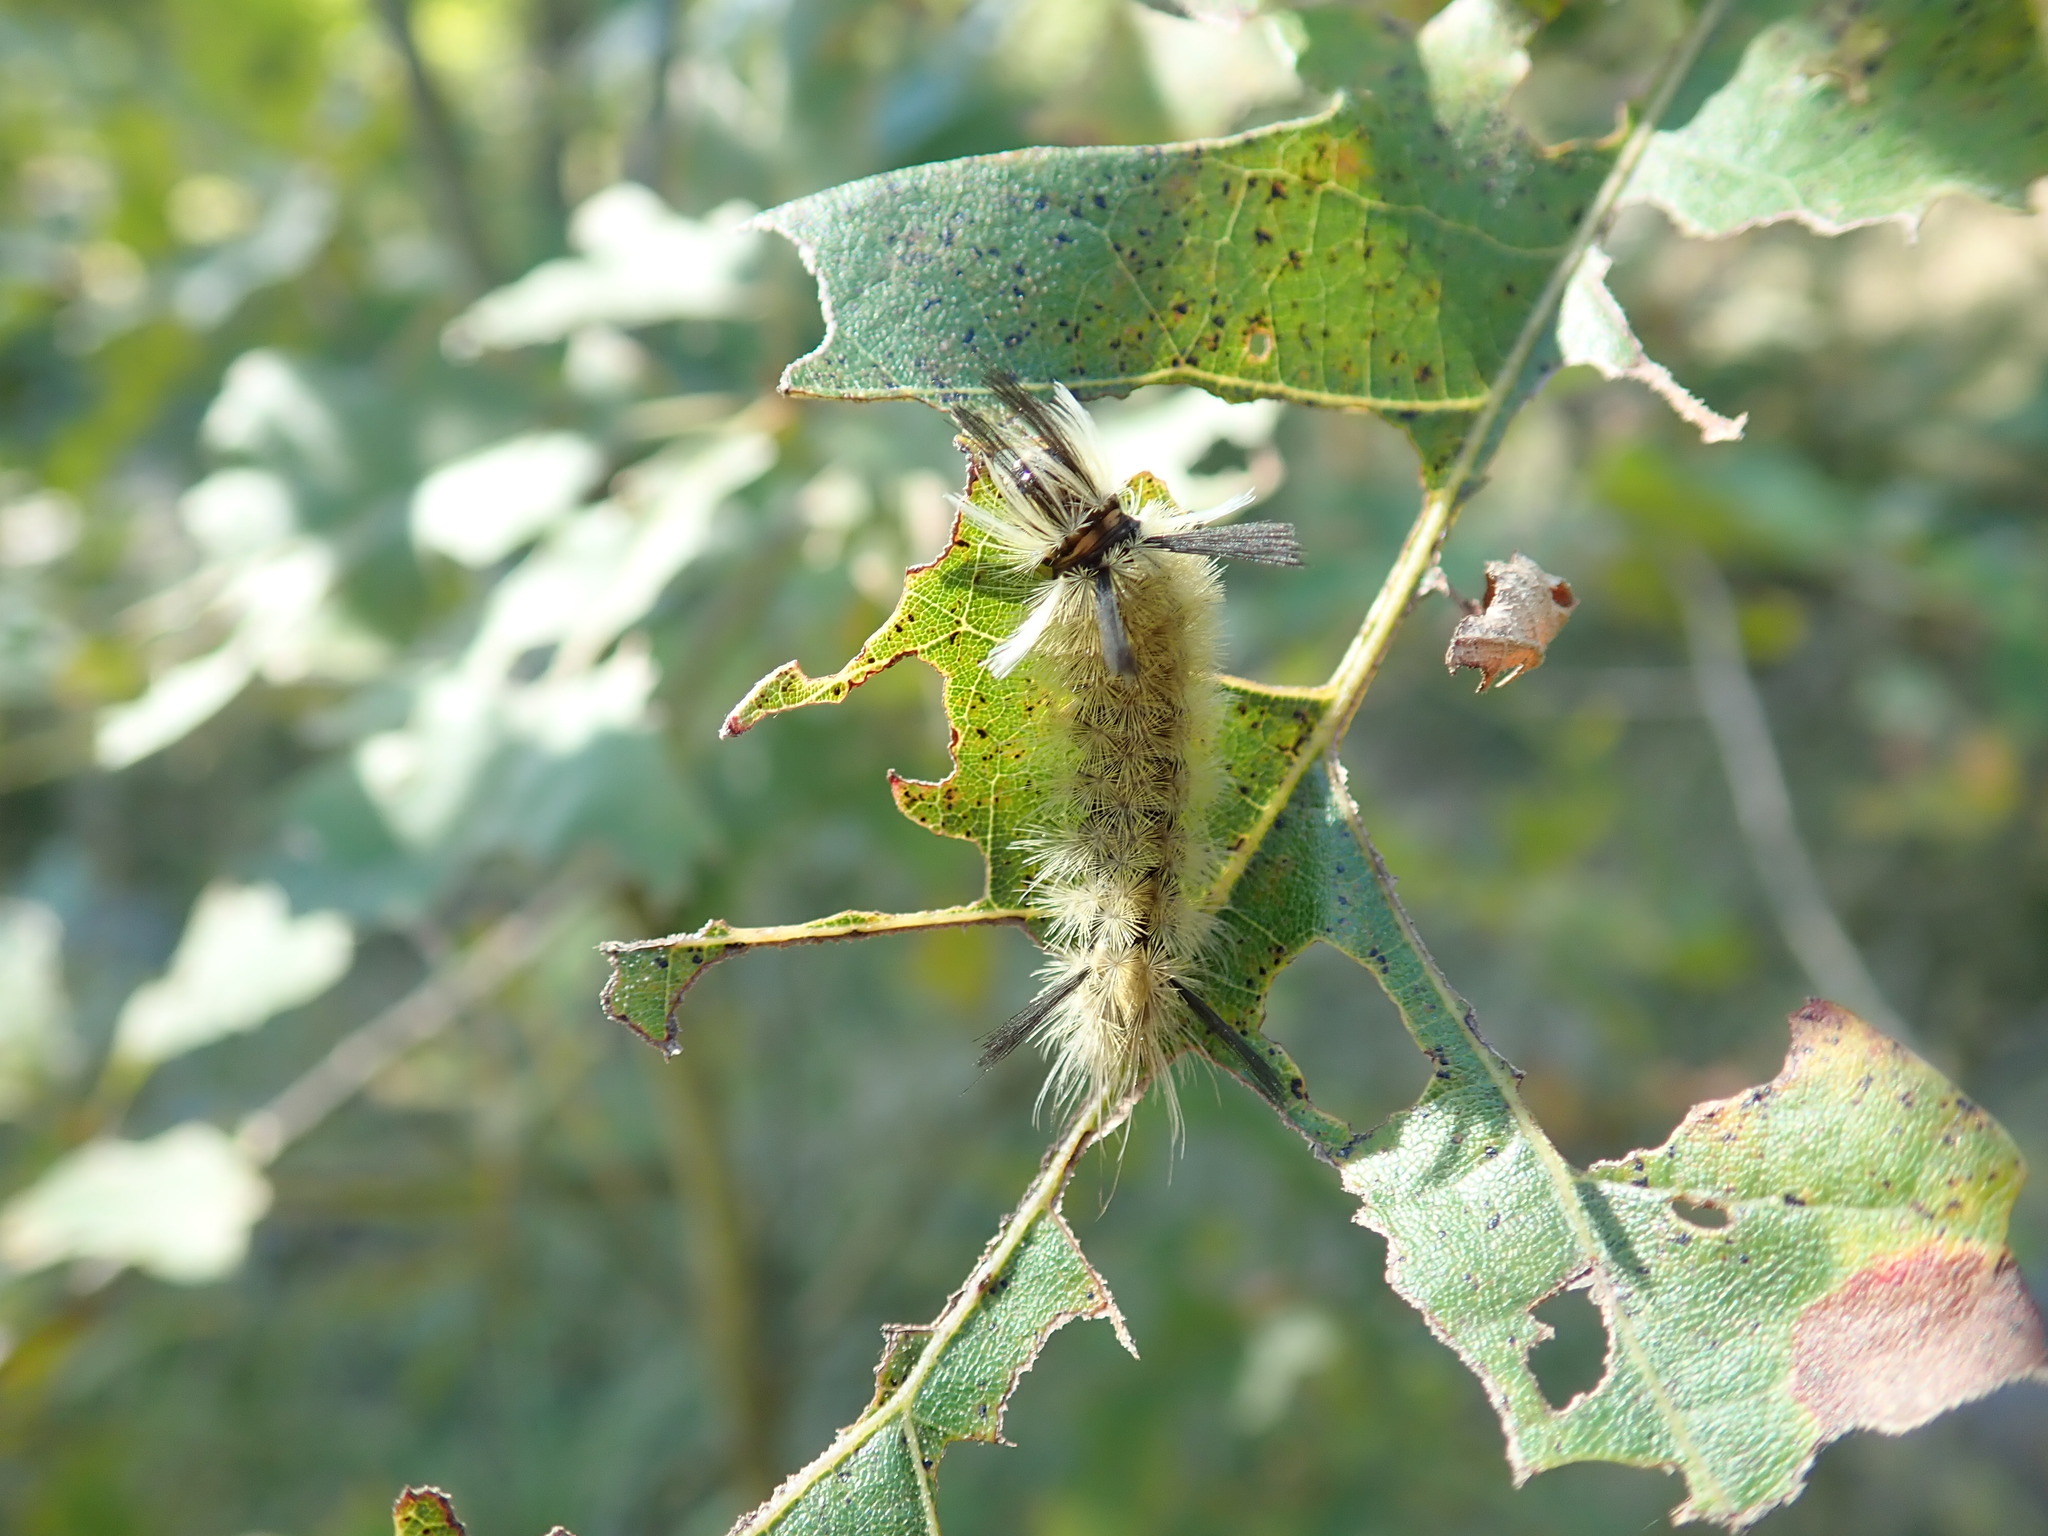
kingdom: Animalia
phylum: Arthropoda
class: Insecta
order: Lepidoptera
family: Erebidae
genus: Halysidota
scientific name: Halysidota tessellaris
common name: Banded tussock moth
